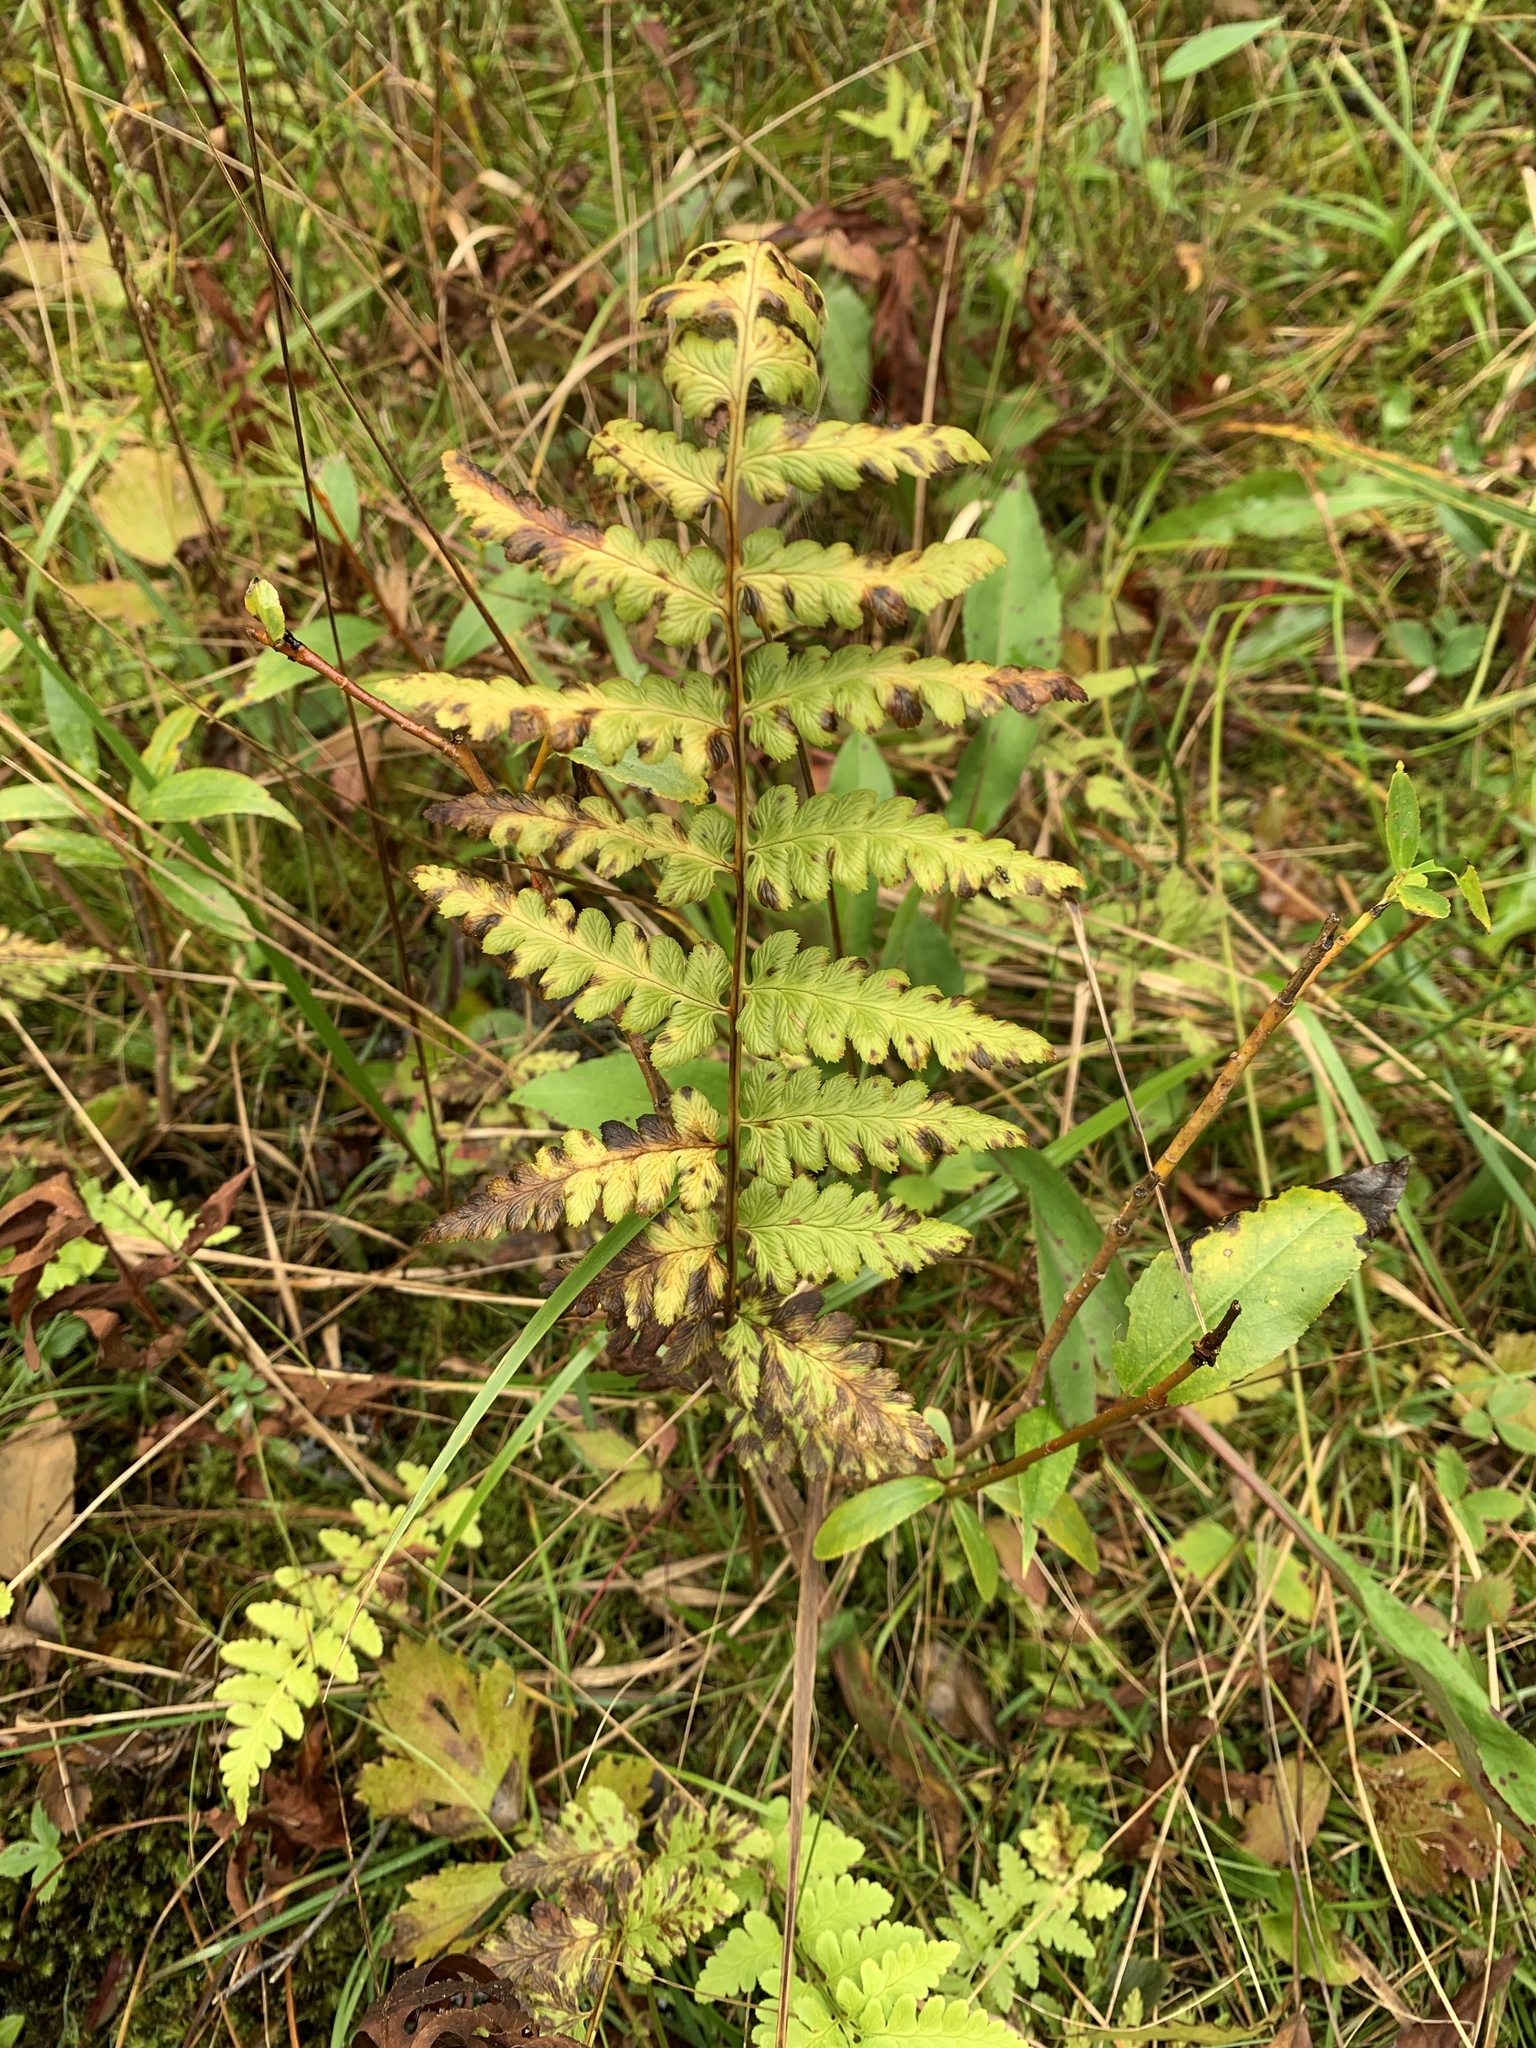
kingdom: Plantae
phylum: Tracheophyta
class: Polypodiopsida
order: Polypodiales
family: Dryopteridaceae
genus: Dryopteris
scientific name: Dryopteris cristata
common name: Crested wood fern
